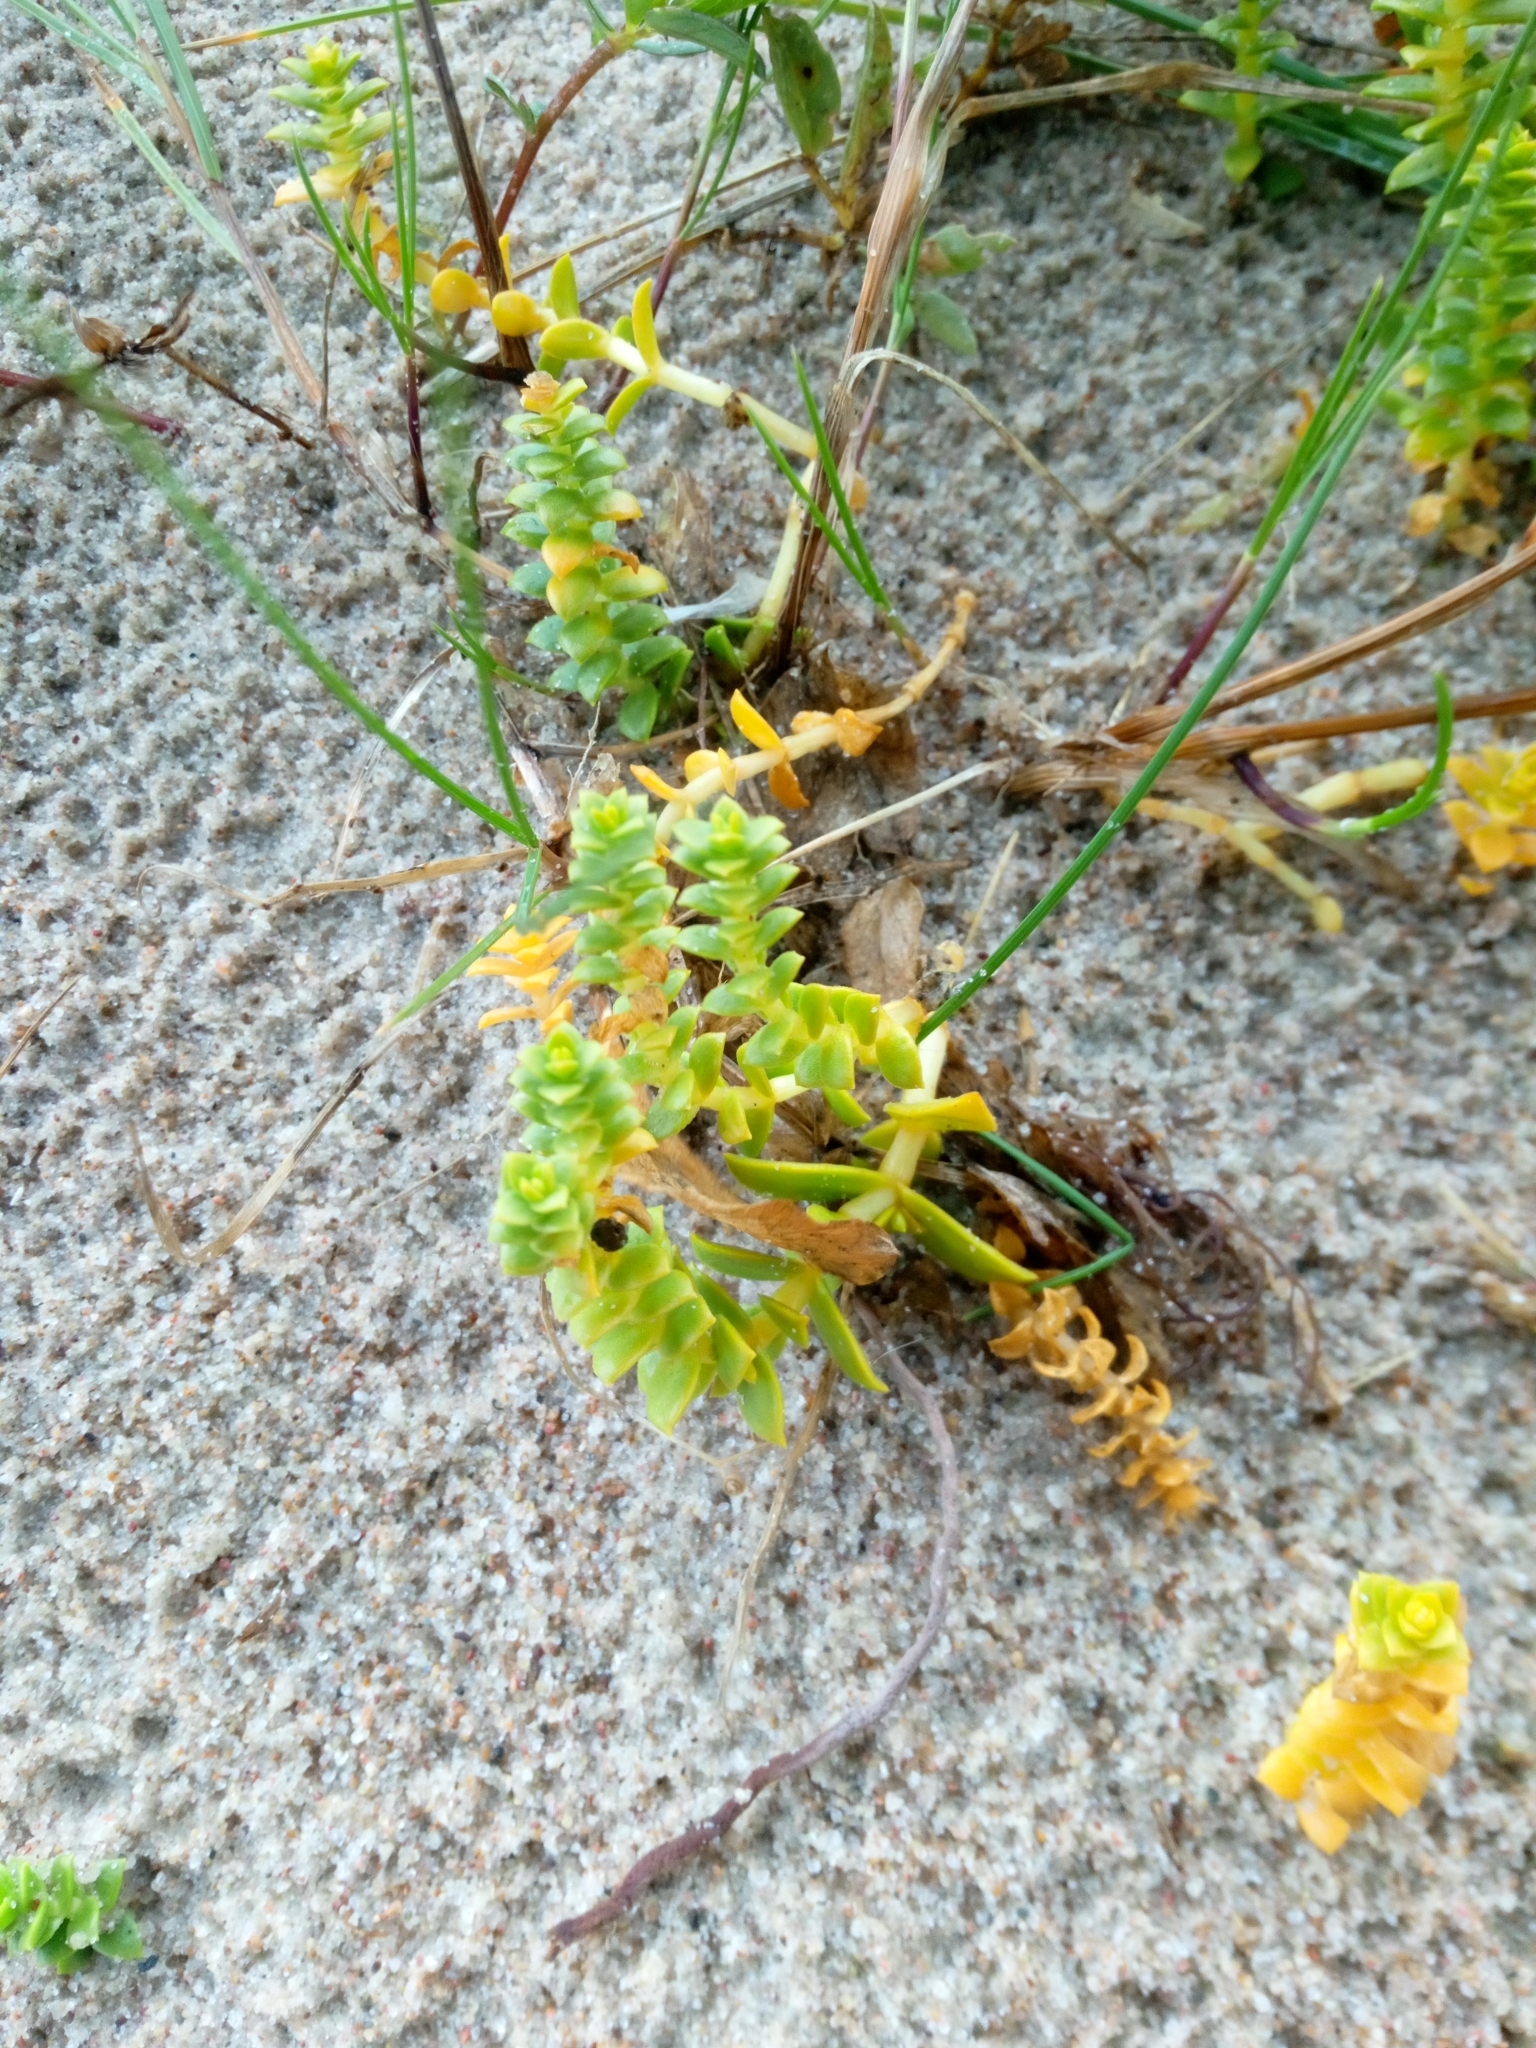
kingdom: Plantae
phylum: Tracheophyta
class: Magnoliopsida
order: Caryophyllales
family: Caryophyllaceae
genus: Honckenya
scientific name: Honckenya peploides
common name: Sea sandwort
